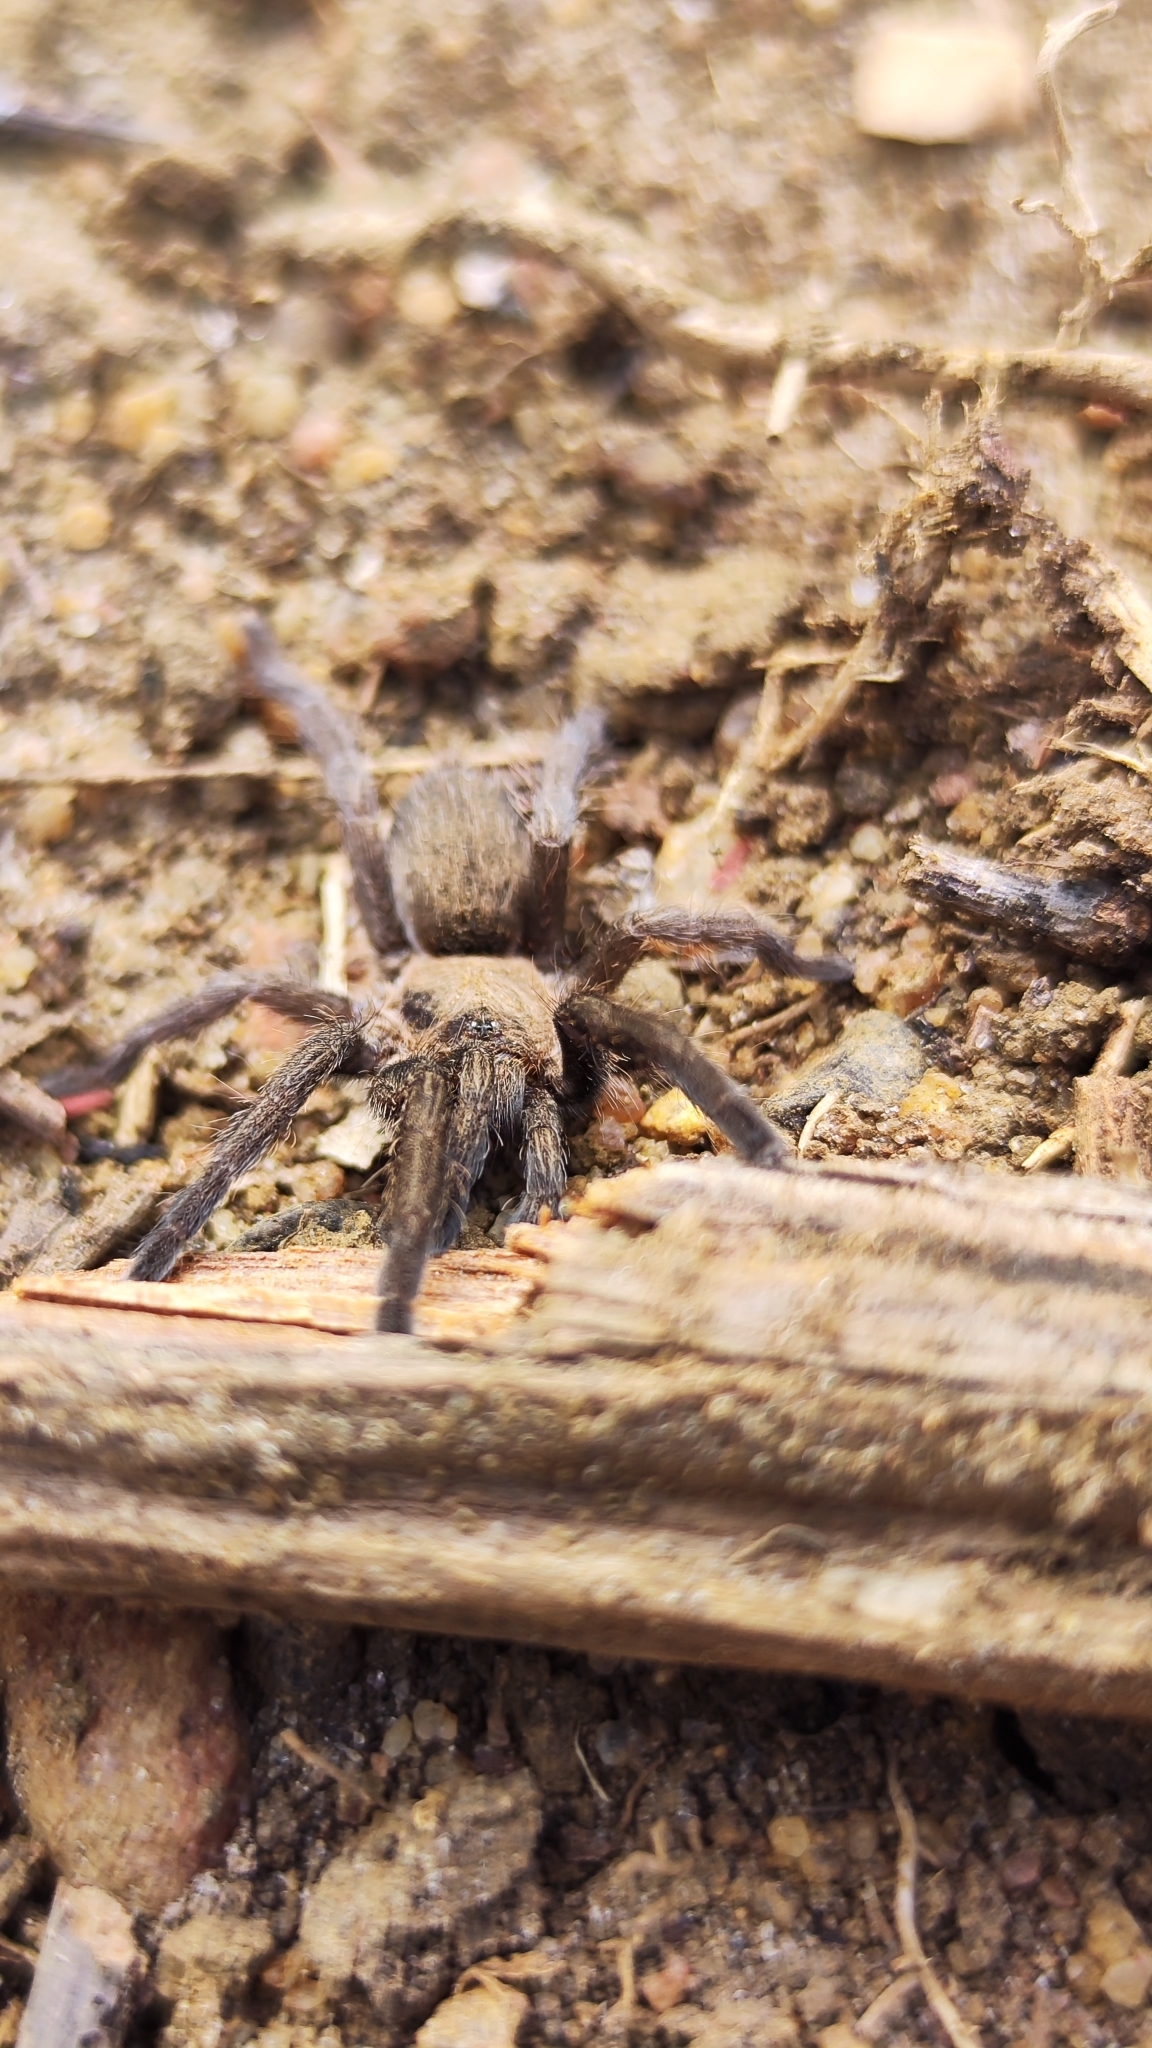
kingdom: Animalia
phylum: Arthropoda
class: Arachnida
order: Araneae
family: Theraphosidae
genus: Dolichothele
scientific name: Dolichothele exilis
